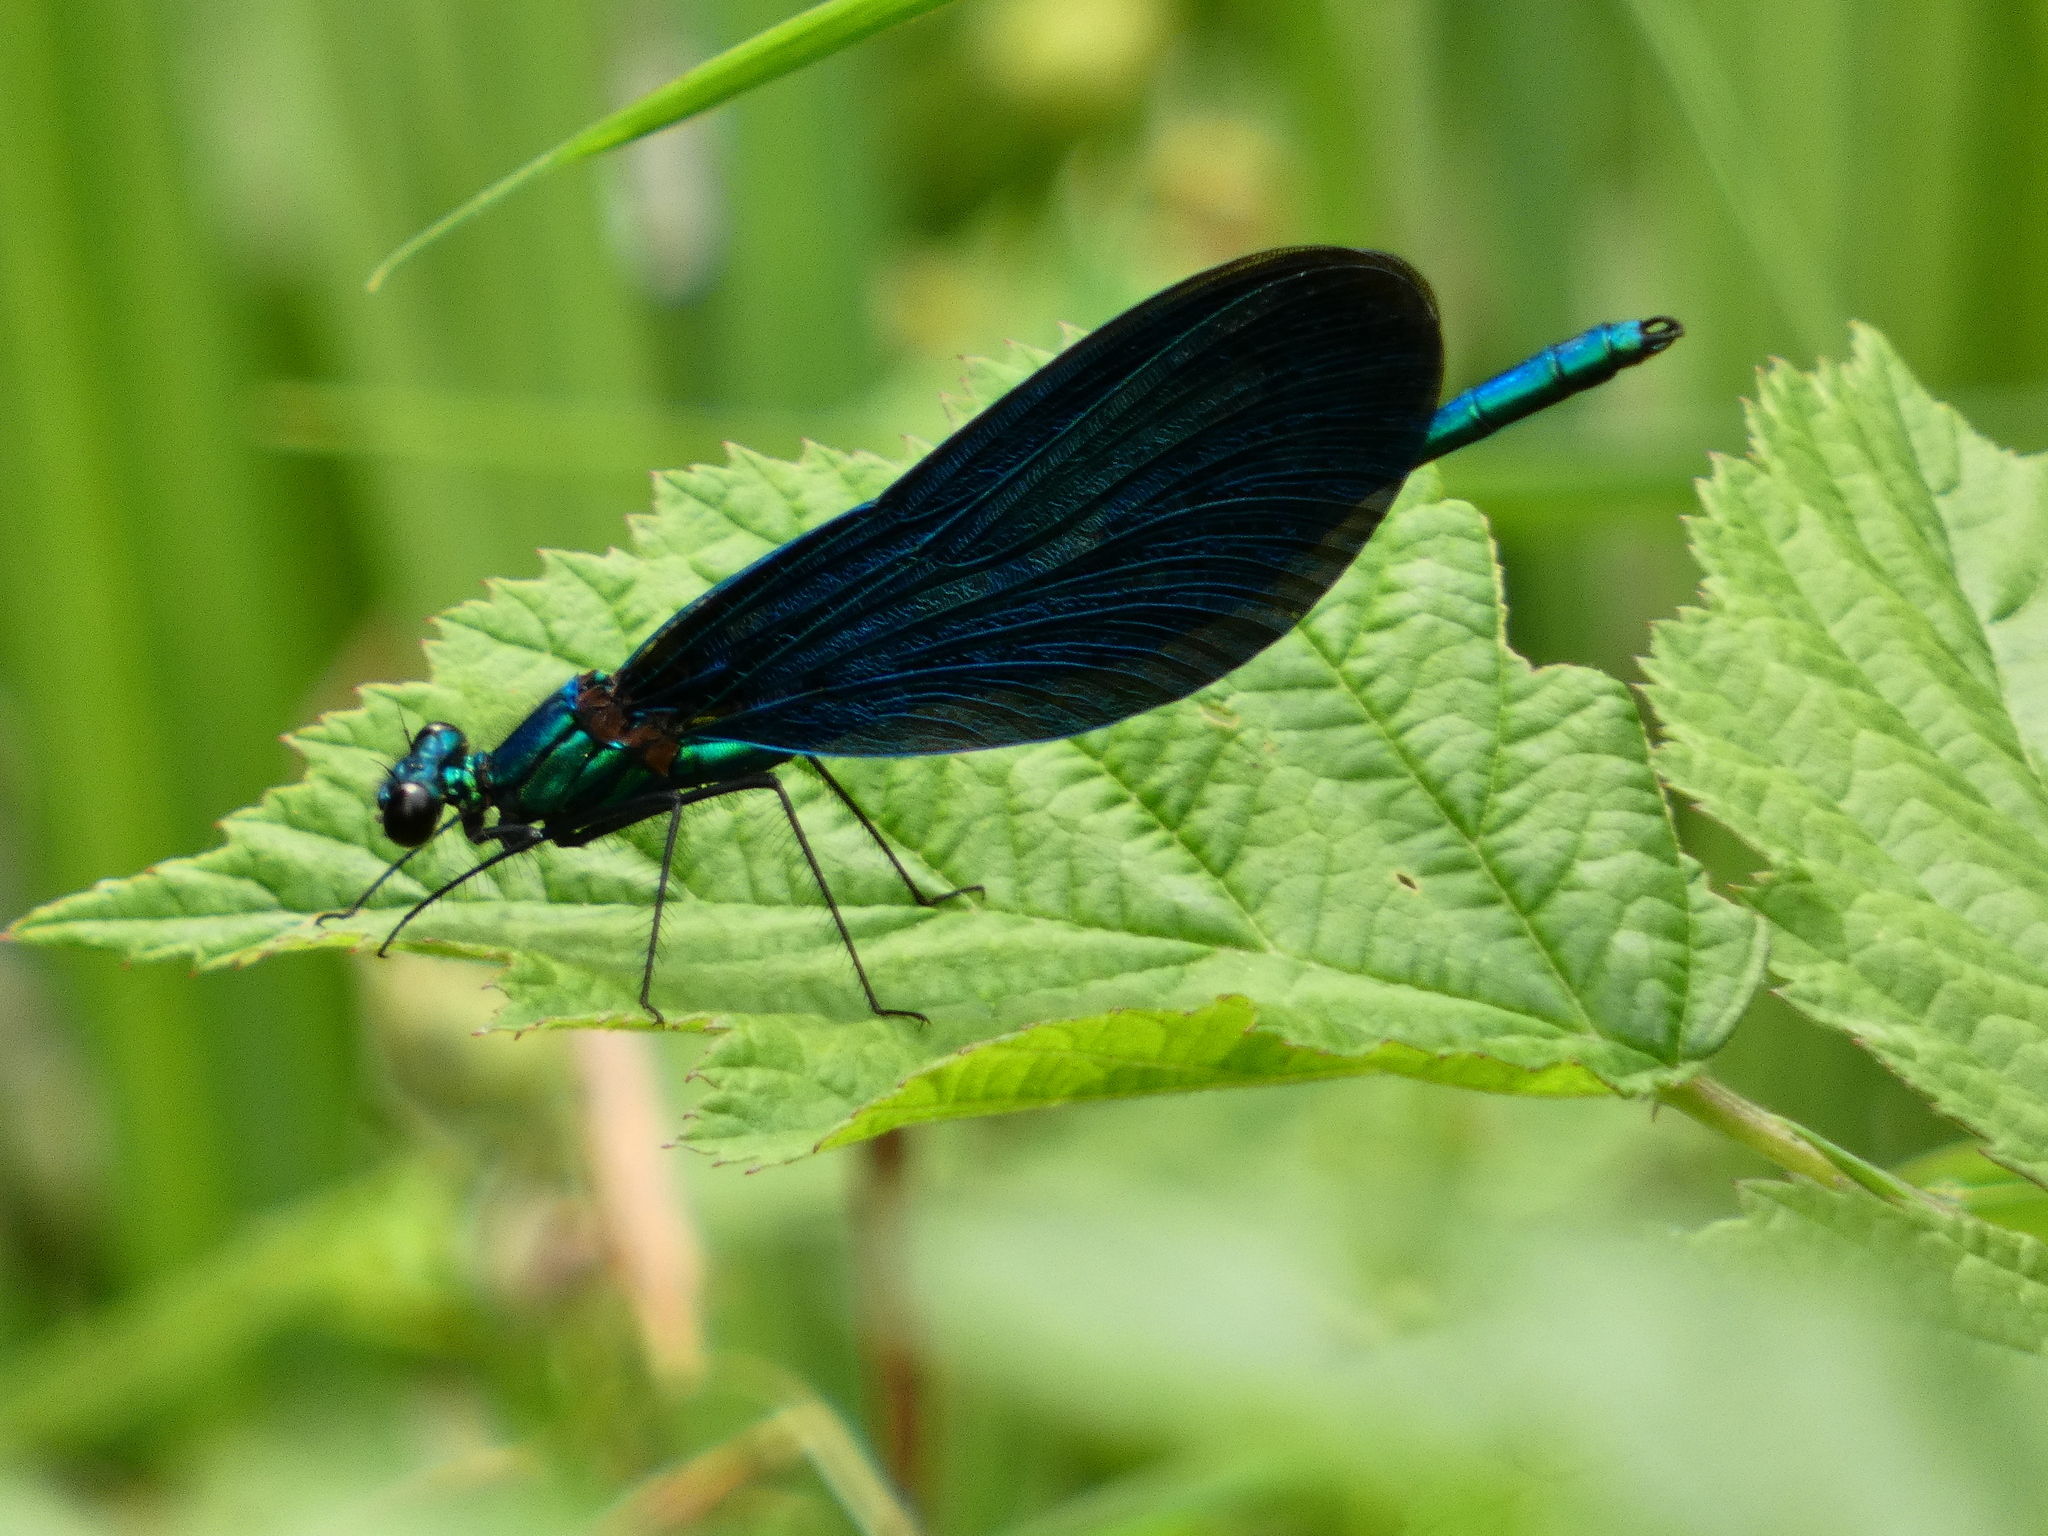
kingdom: Animalia
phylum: Arthropoda
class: Insecta
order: Odonata
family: Calopterygidae
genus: Calopteryx
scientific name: Calopteryx virgo
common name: Beautiful demoiselle
